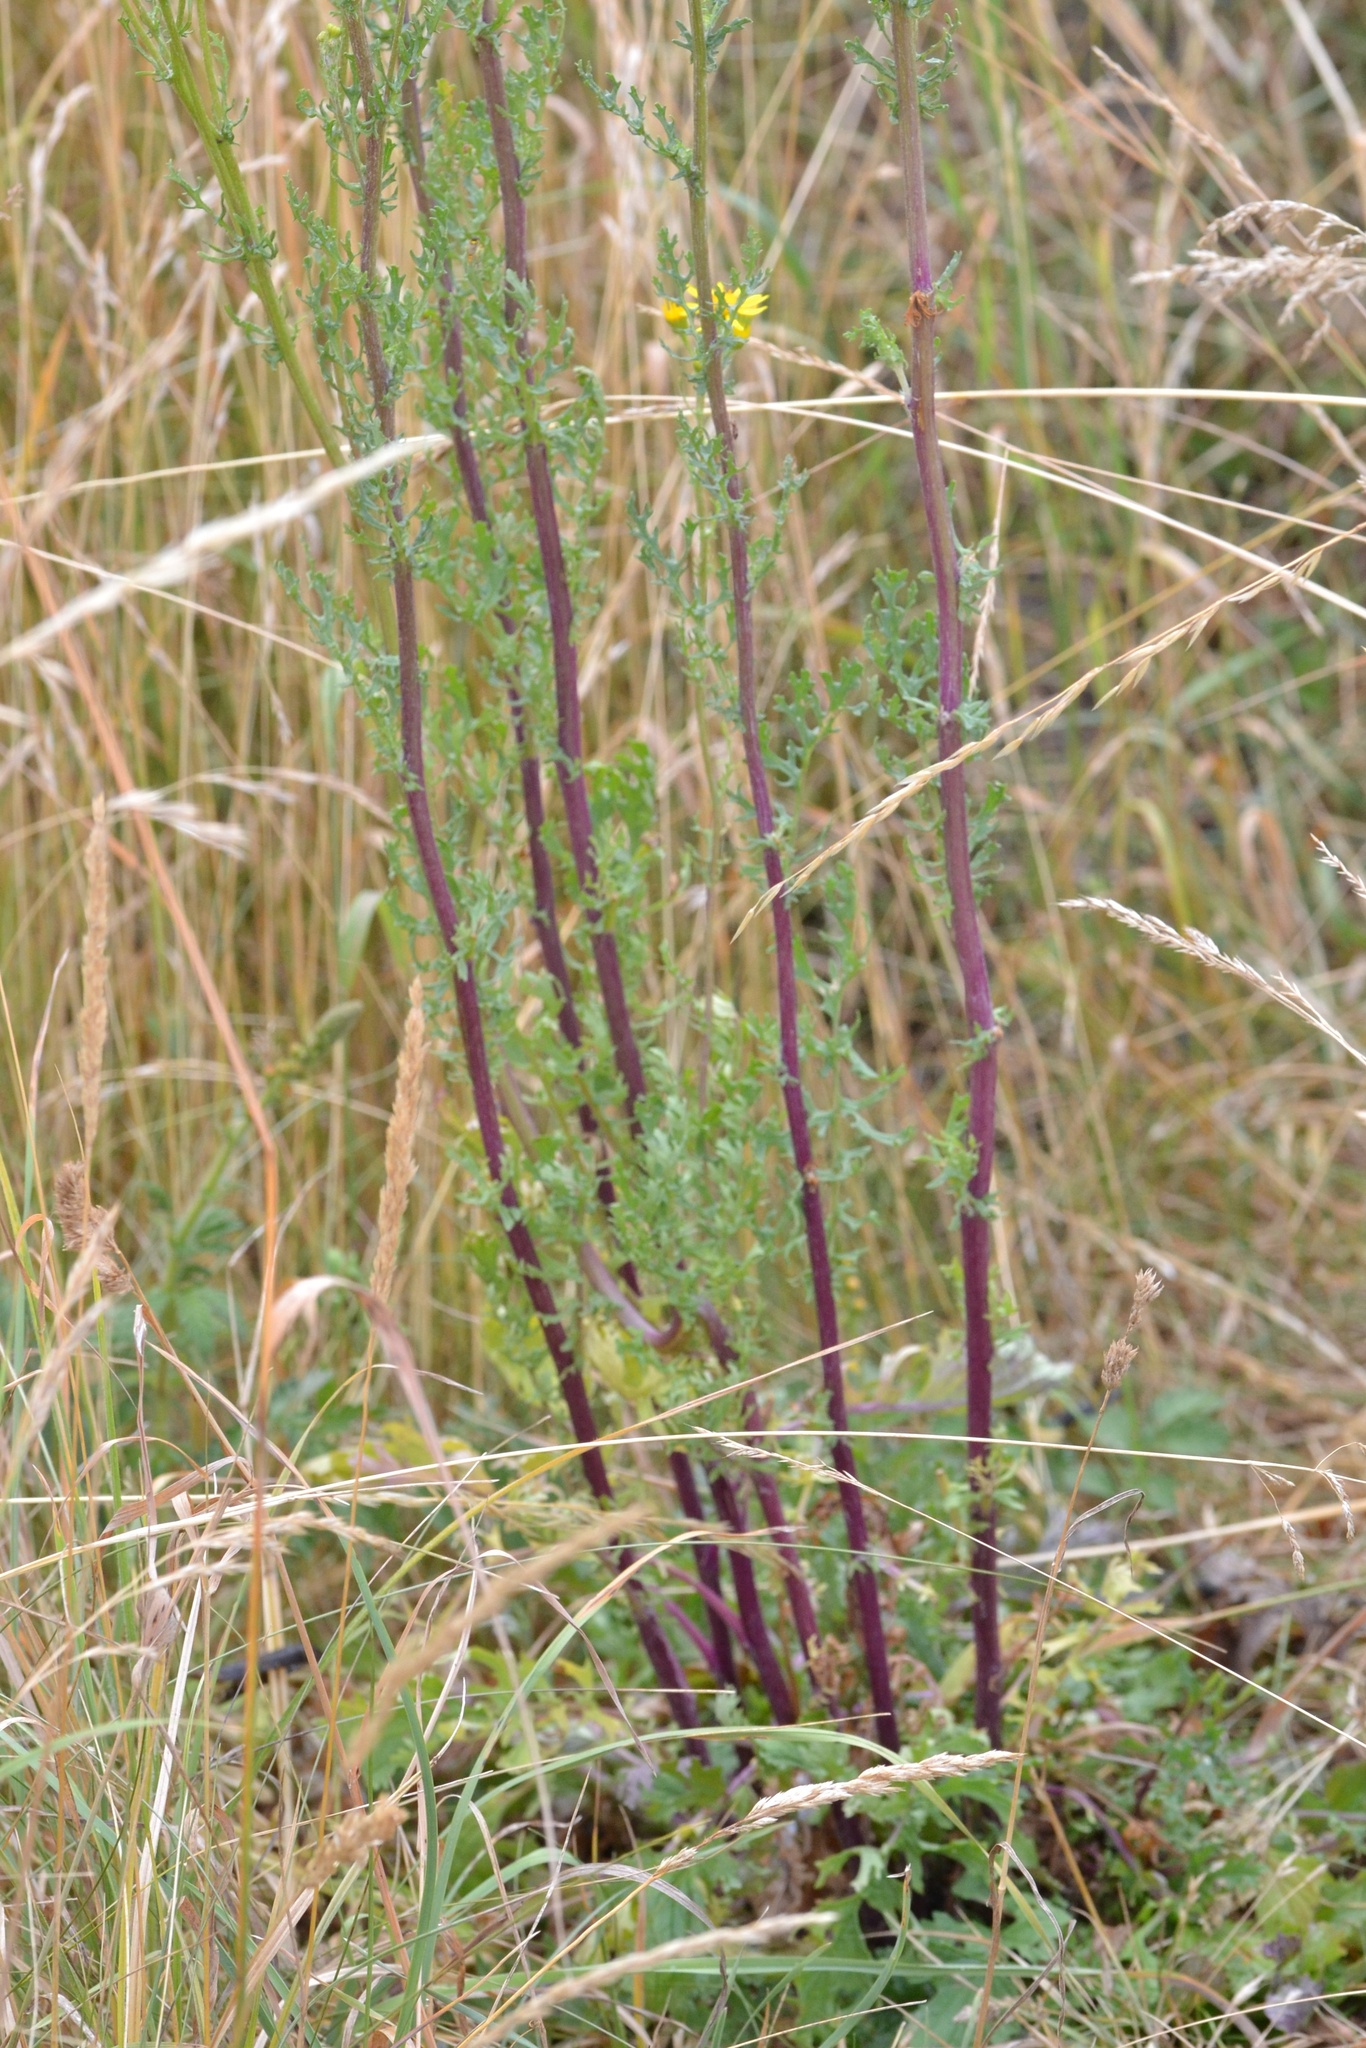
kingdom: Plantae
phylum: Tracheophyta
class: Magnoliopsida
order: Asterales
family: Asteraceae
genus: Jacobaea
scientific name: Jacobaea vulgaris
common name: Stinking willie
